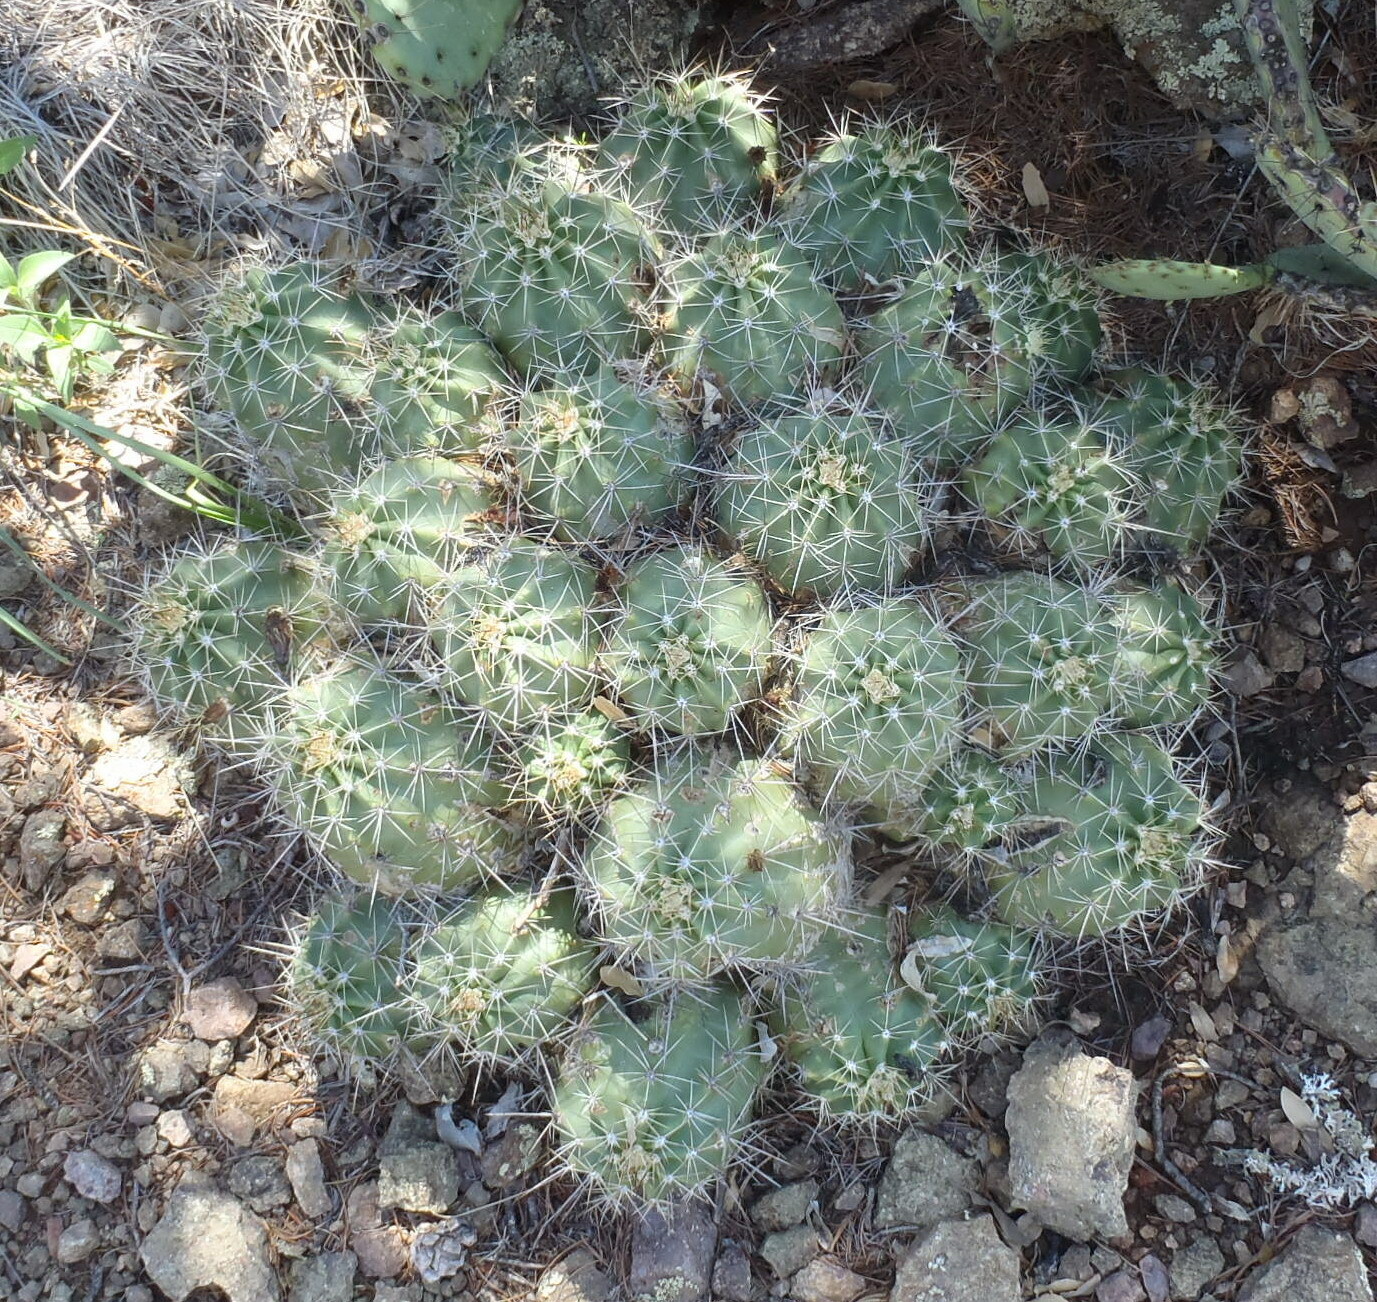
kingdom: Plantae
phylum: Tracheophyta
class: Magnoliopsida
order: Caryophyllales
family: Cactaceae
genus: Echinocereus
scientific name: Echinocereus coccineus
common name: Scarlet hedgehog cactus
